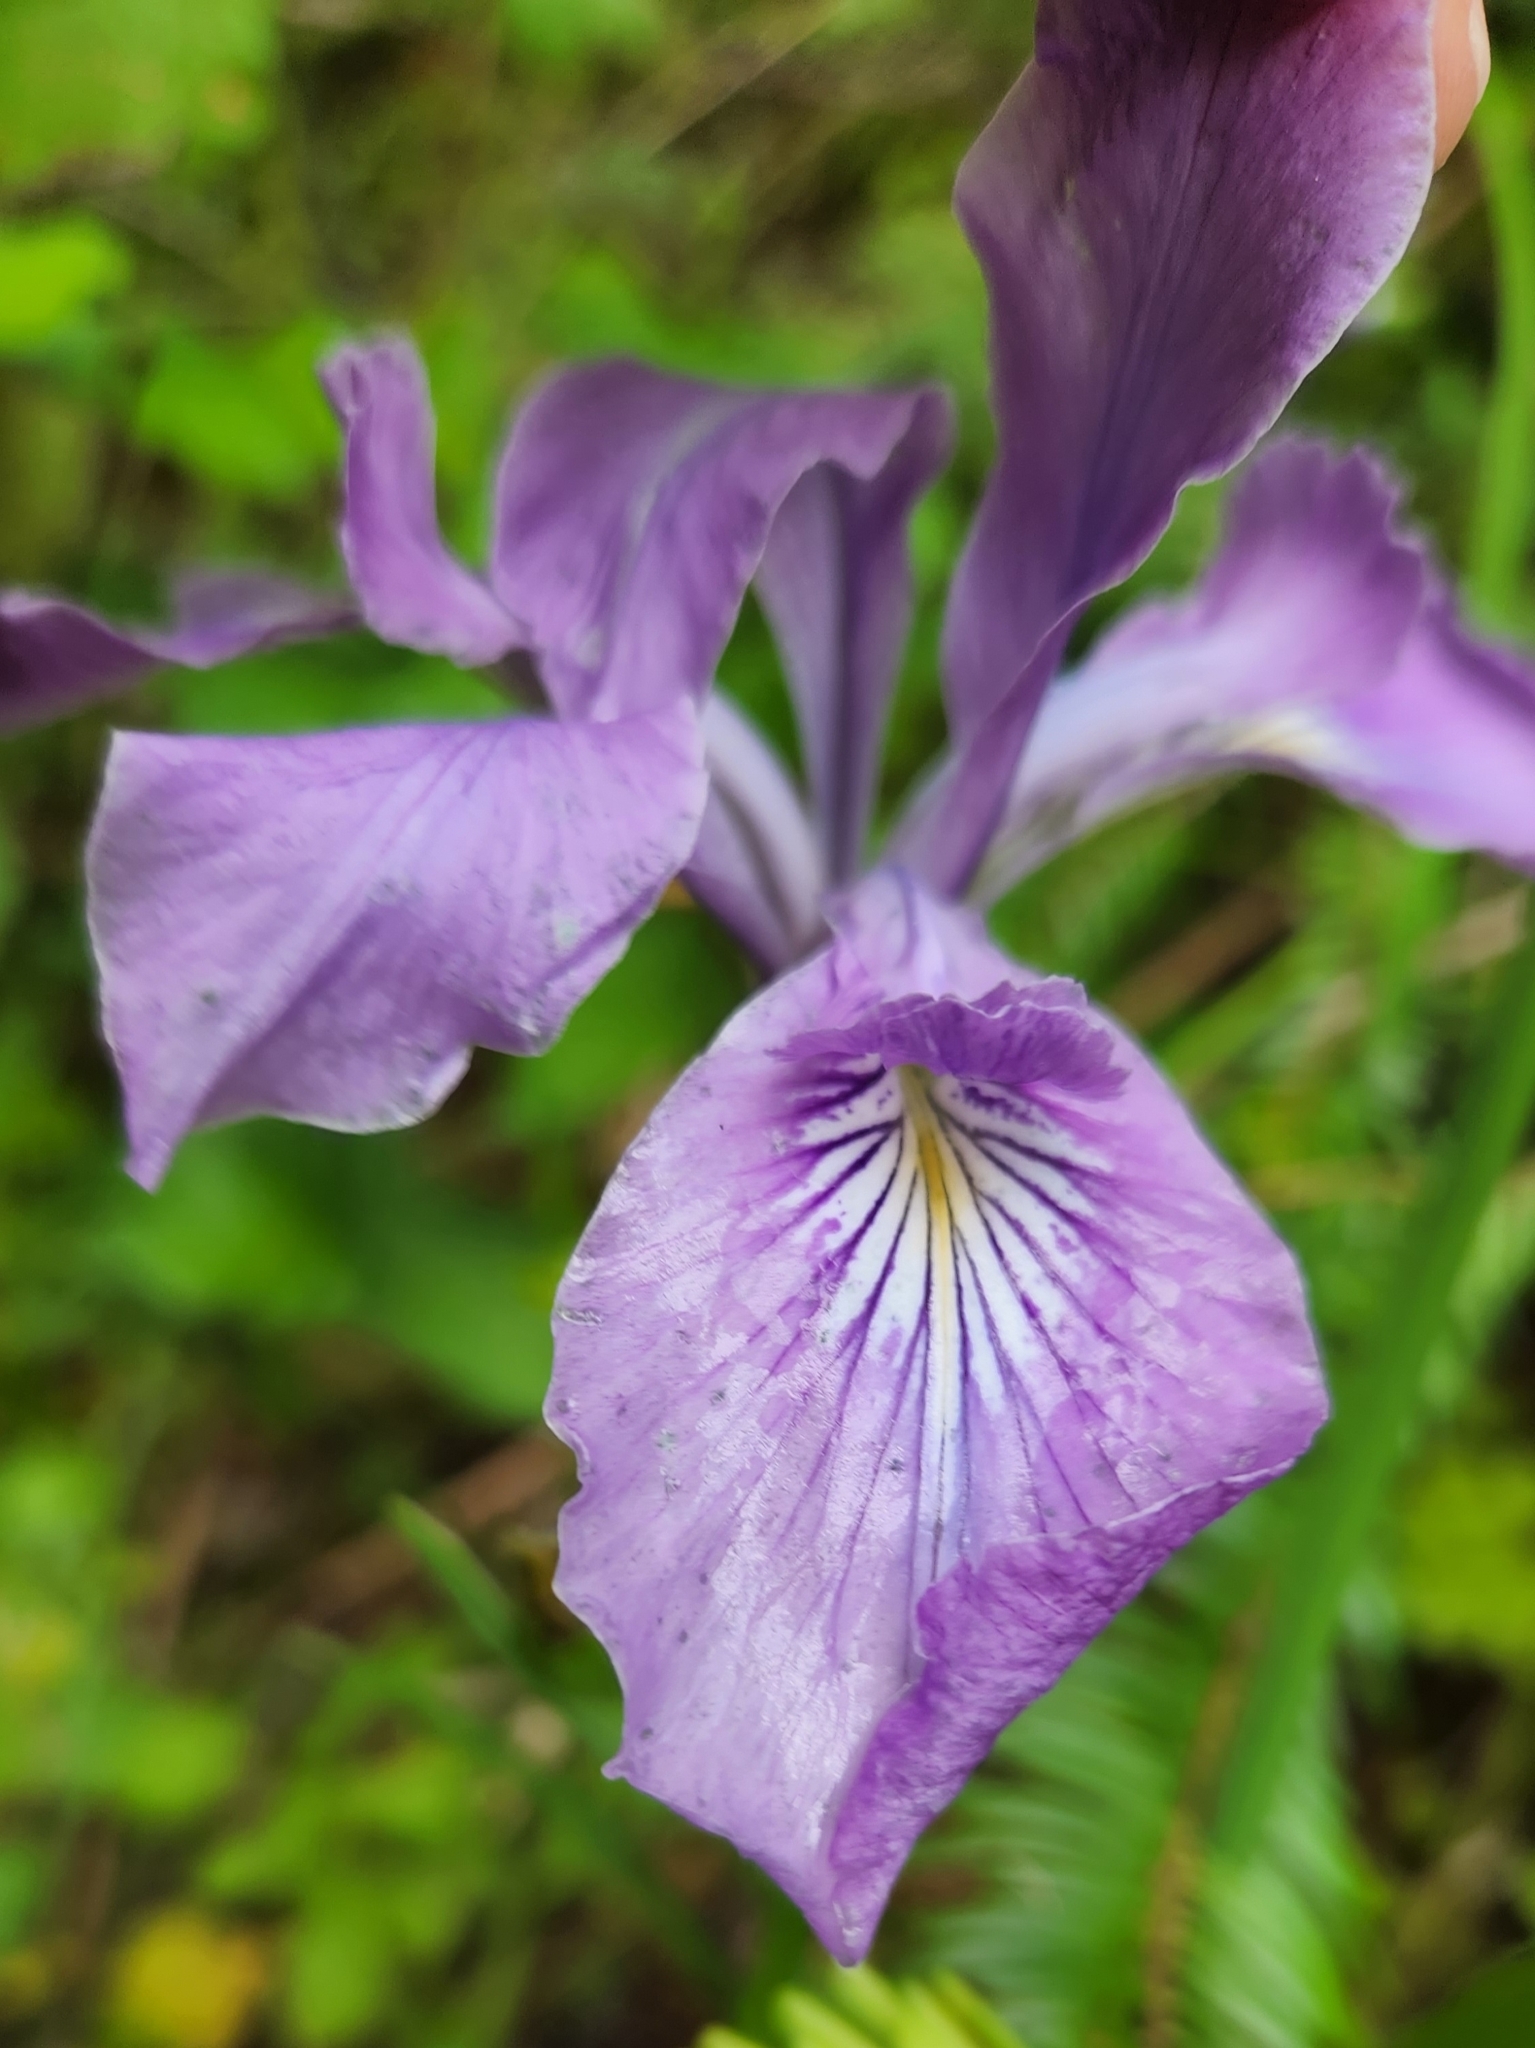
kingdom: Plantae
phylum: Tracheophyta
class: Liliopsida
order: Asparagales
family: Iridaceae
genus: Iris
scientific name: Iris tenax
